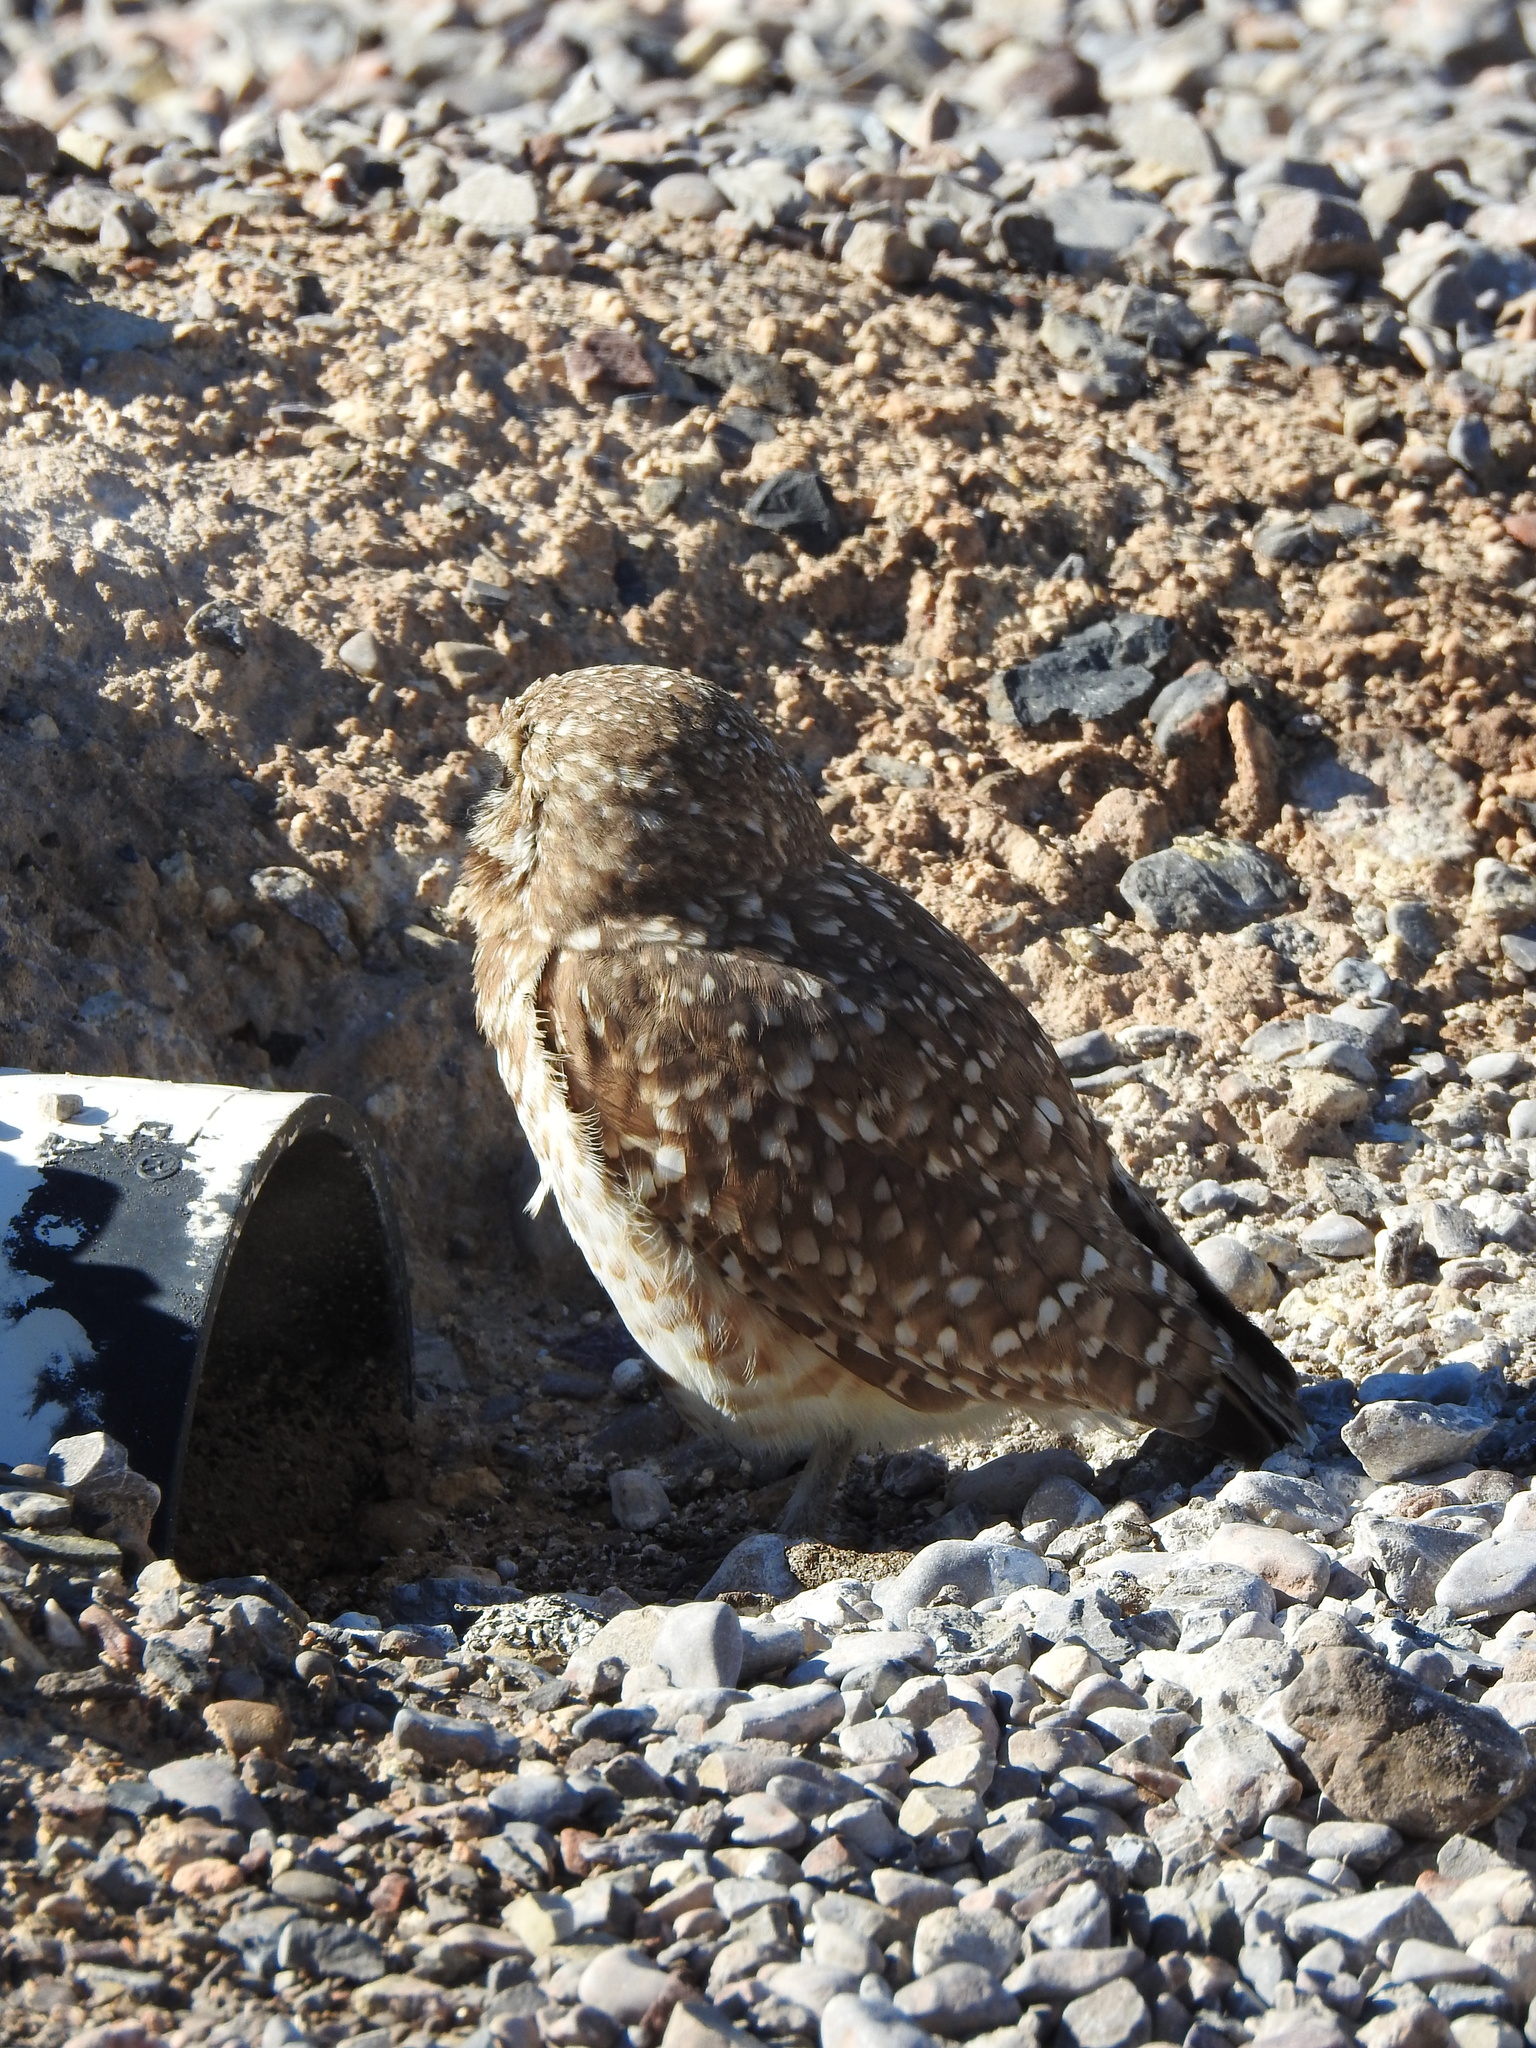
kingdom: Animalia
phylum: Chordata
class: Aves
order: Strigiformes
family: Strigidae
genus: Athene
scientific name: Athene cunicularia
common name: Burrowing owl
